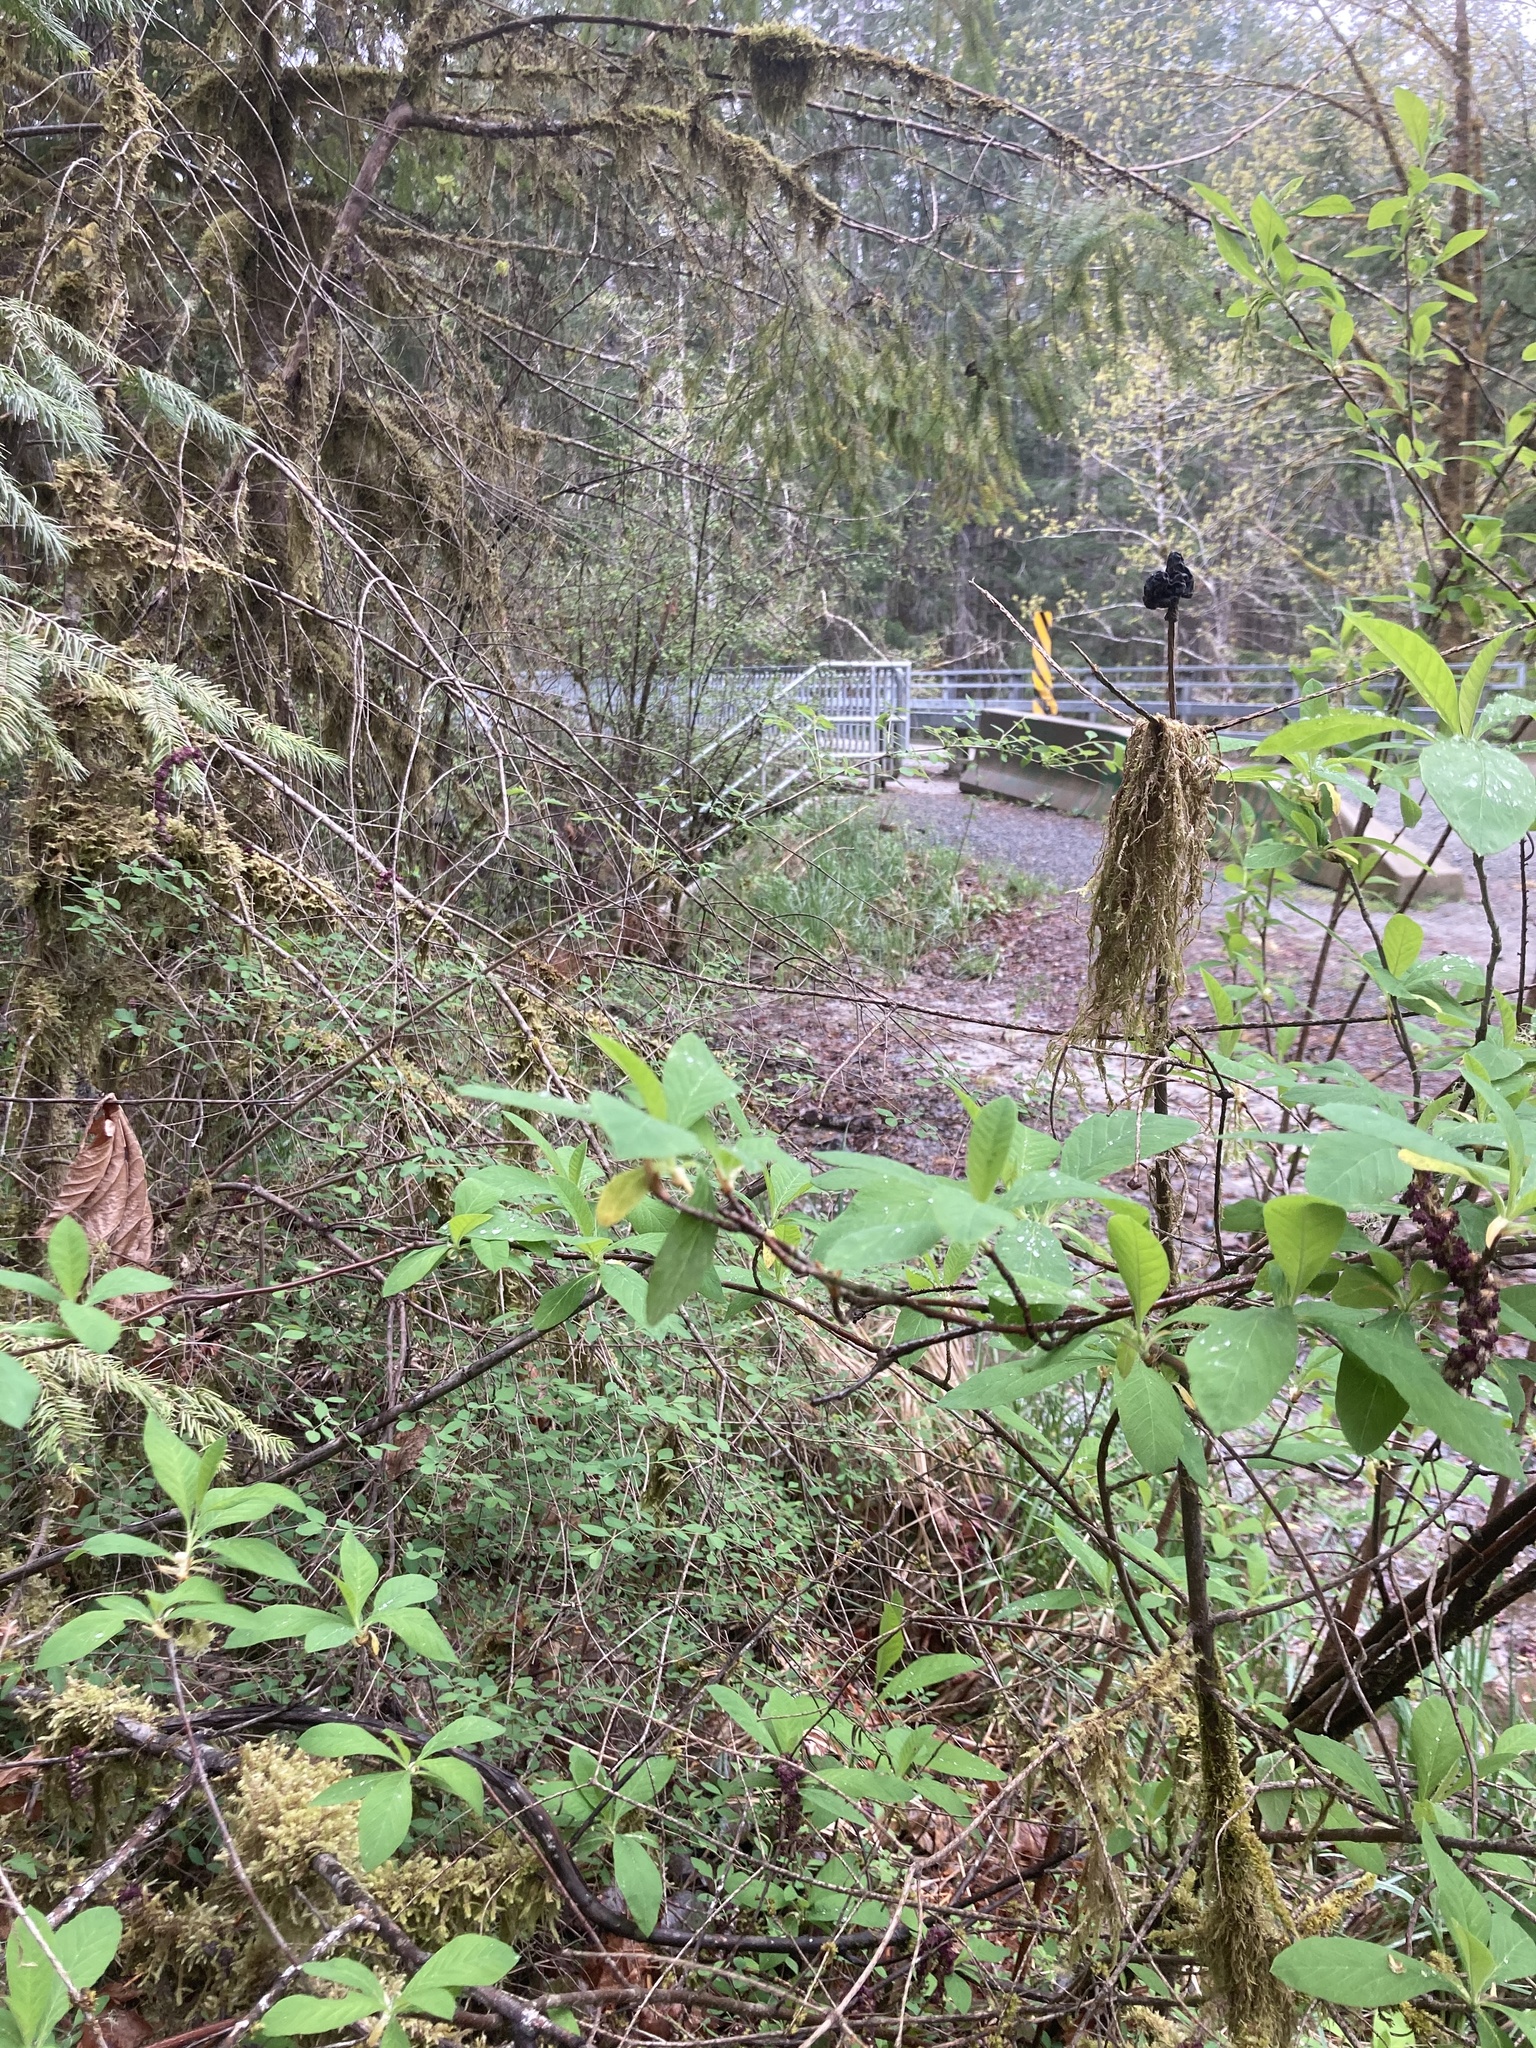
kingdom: Plantae
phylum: Tracheophyta
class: Magnoliopsida
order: Rosales
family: Rosaceae
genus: Oemleria
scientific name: Oemleria cerasiformis
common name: Osoberry
